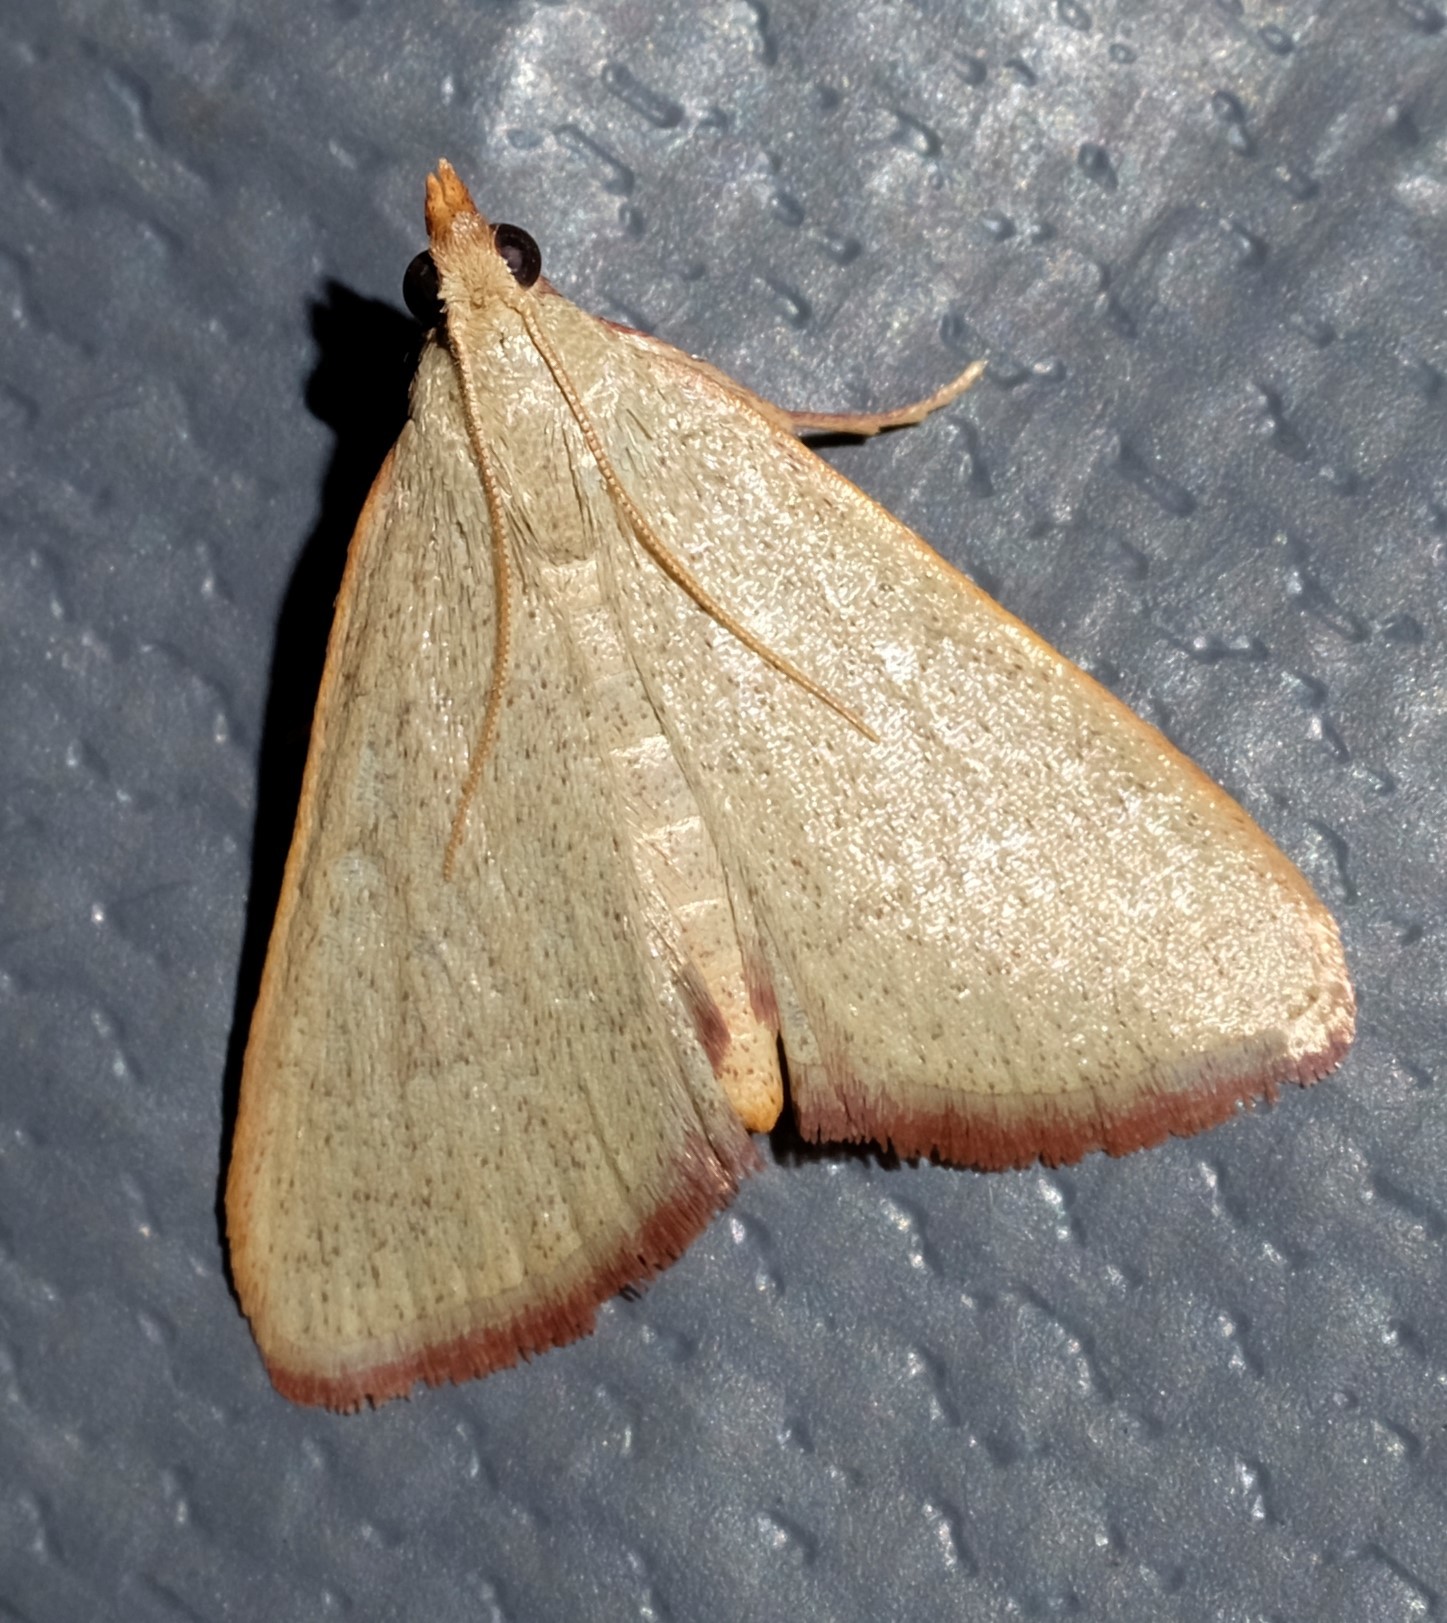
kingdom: Animalia
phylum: Arthropoda
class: Insecta
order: Lepidoptera
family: Pyralidae
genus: Hypsopygia
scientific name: Hypsopygia
